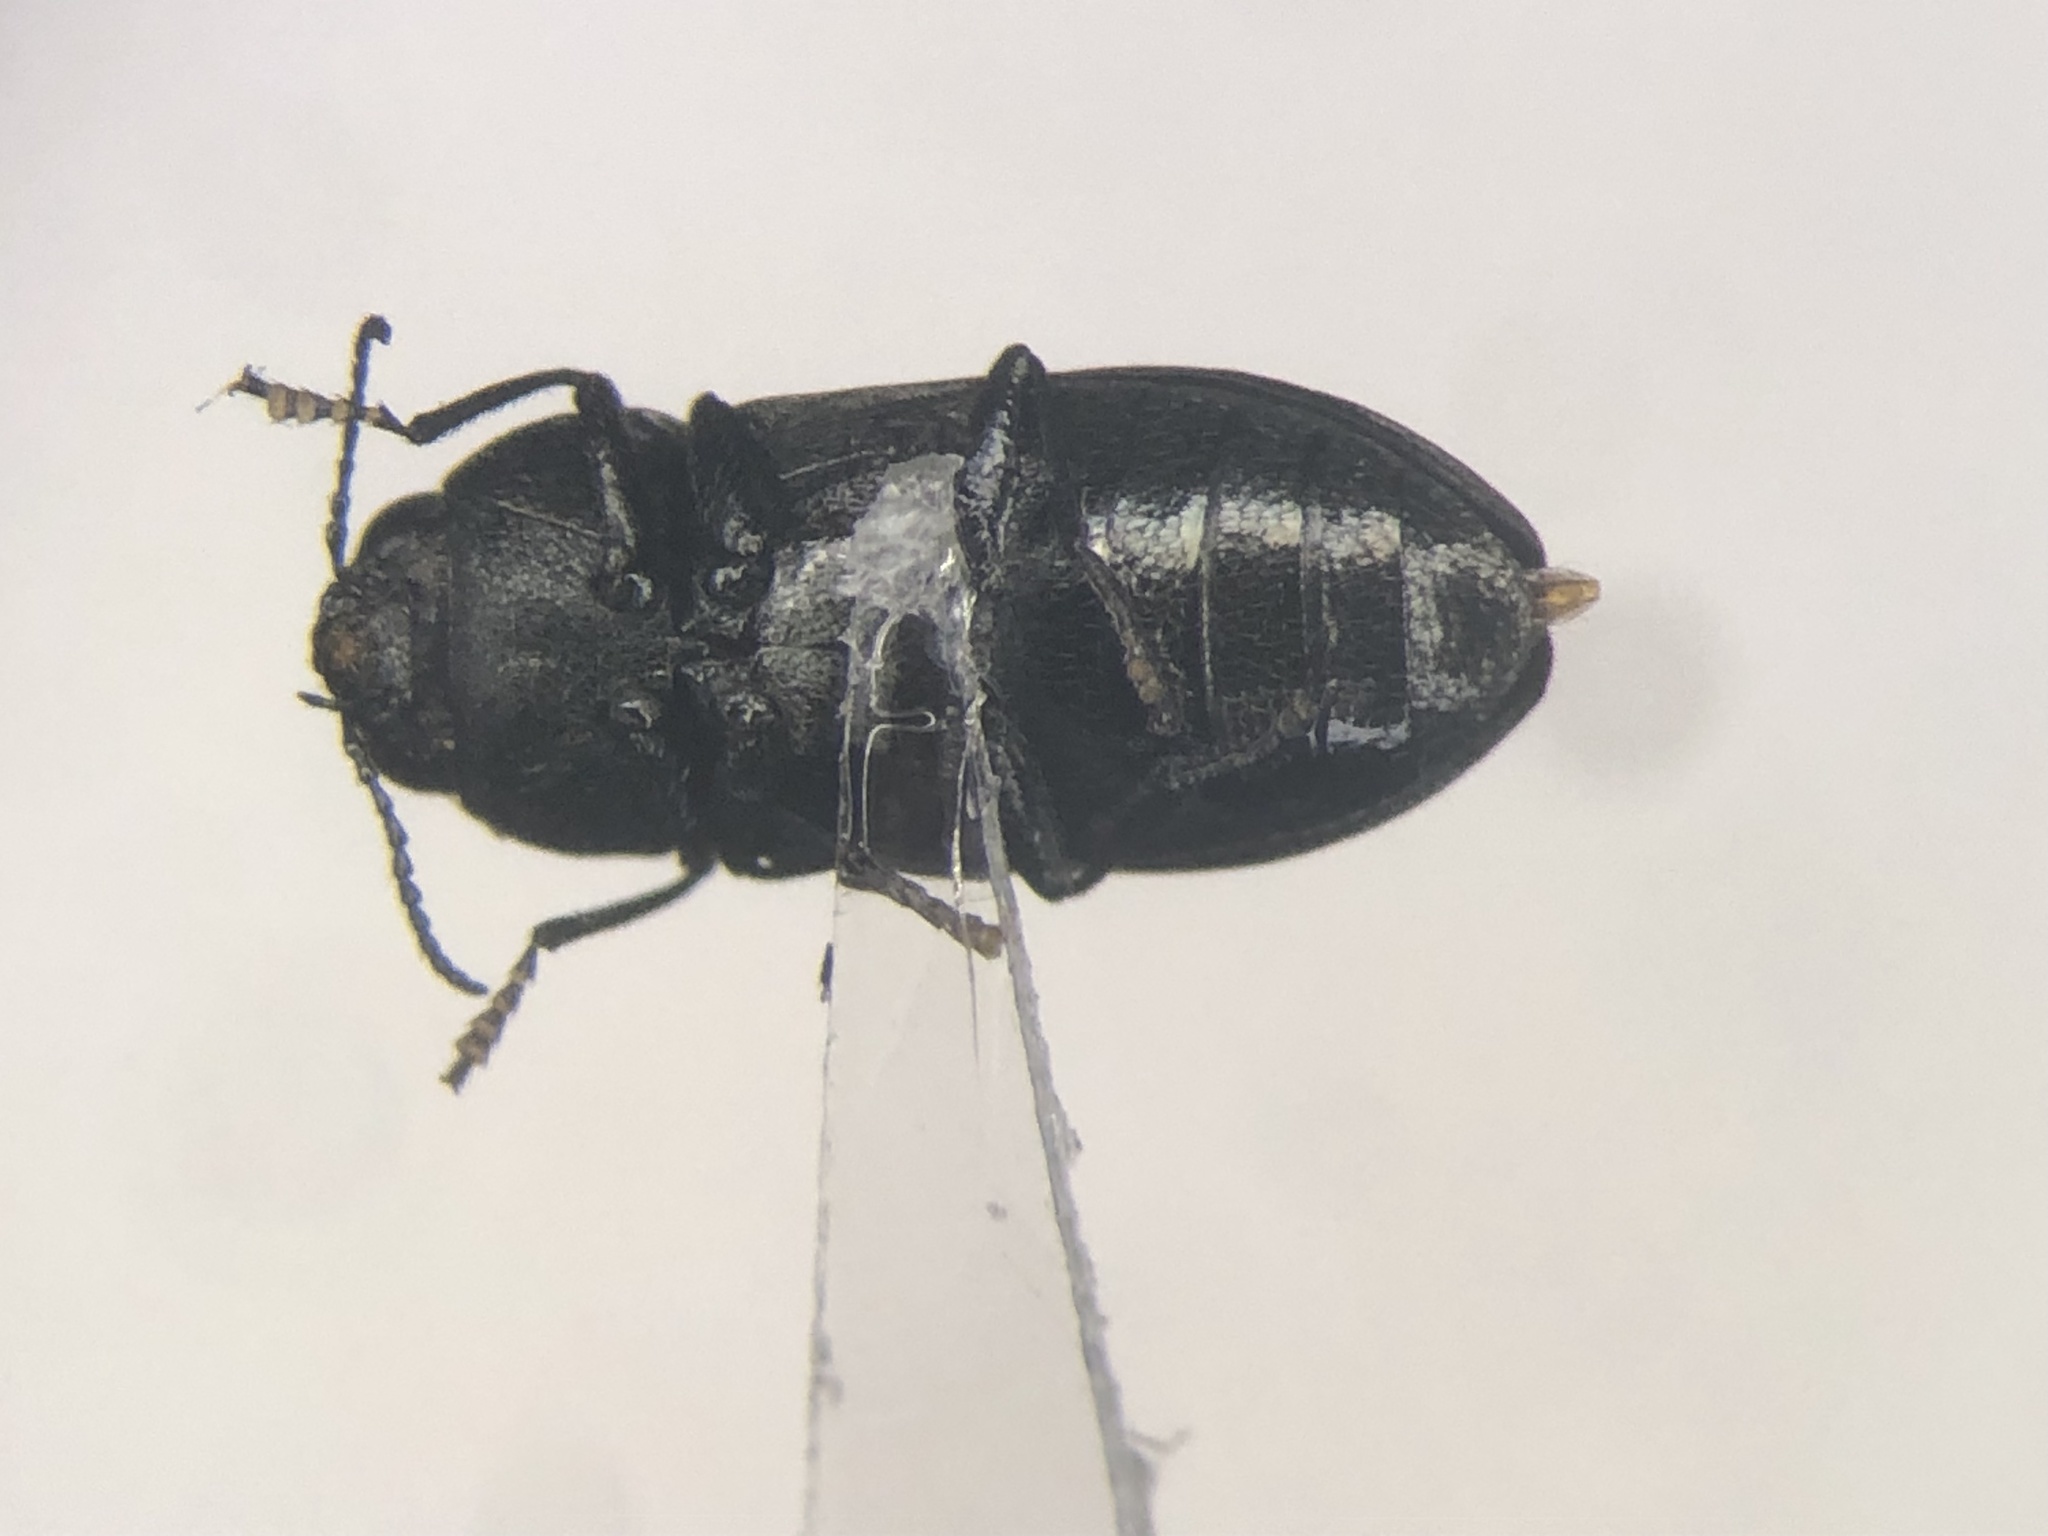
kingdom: Animalia
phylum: Arthropoda
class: Insecta
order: Coleoptera
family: Buprestidae
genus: Anthaxia
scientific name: Anthaxia inornata
